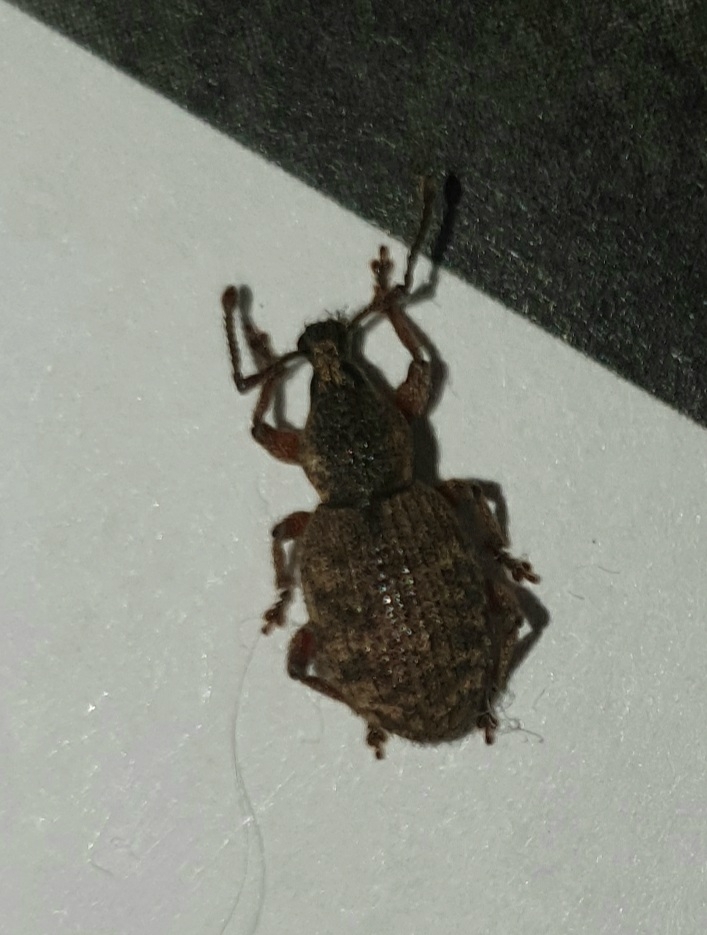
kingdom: Animalia
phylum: Arthropoda
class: Insecta
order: Coleoptera
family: Curculionidae
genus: Otiorhynchus
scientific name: Otiorhynchus singularis
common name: Clay-coloured weevil
